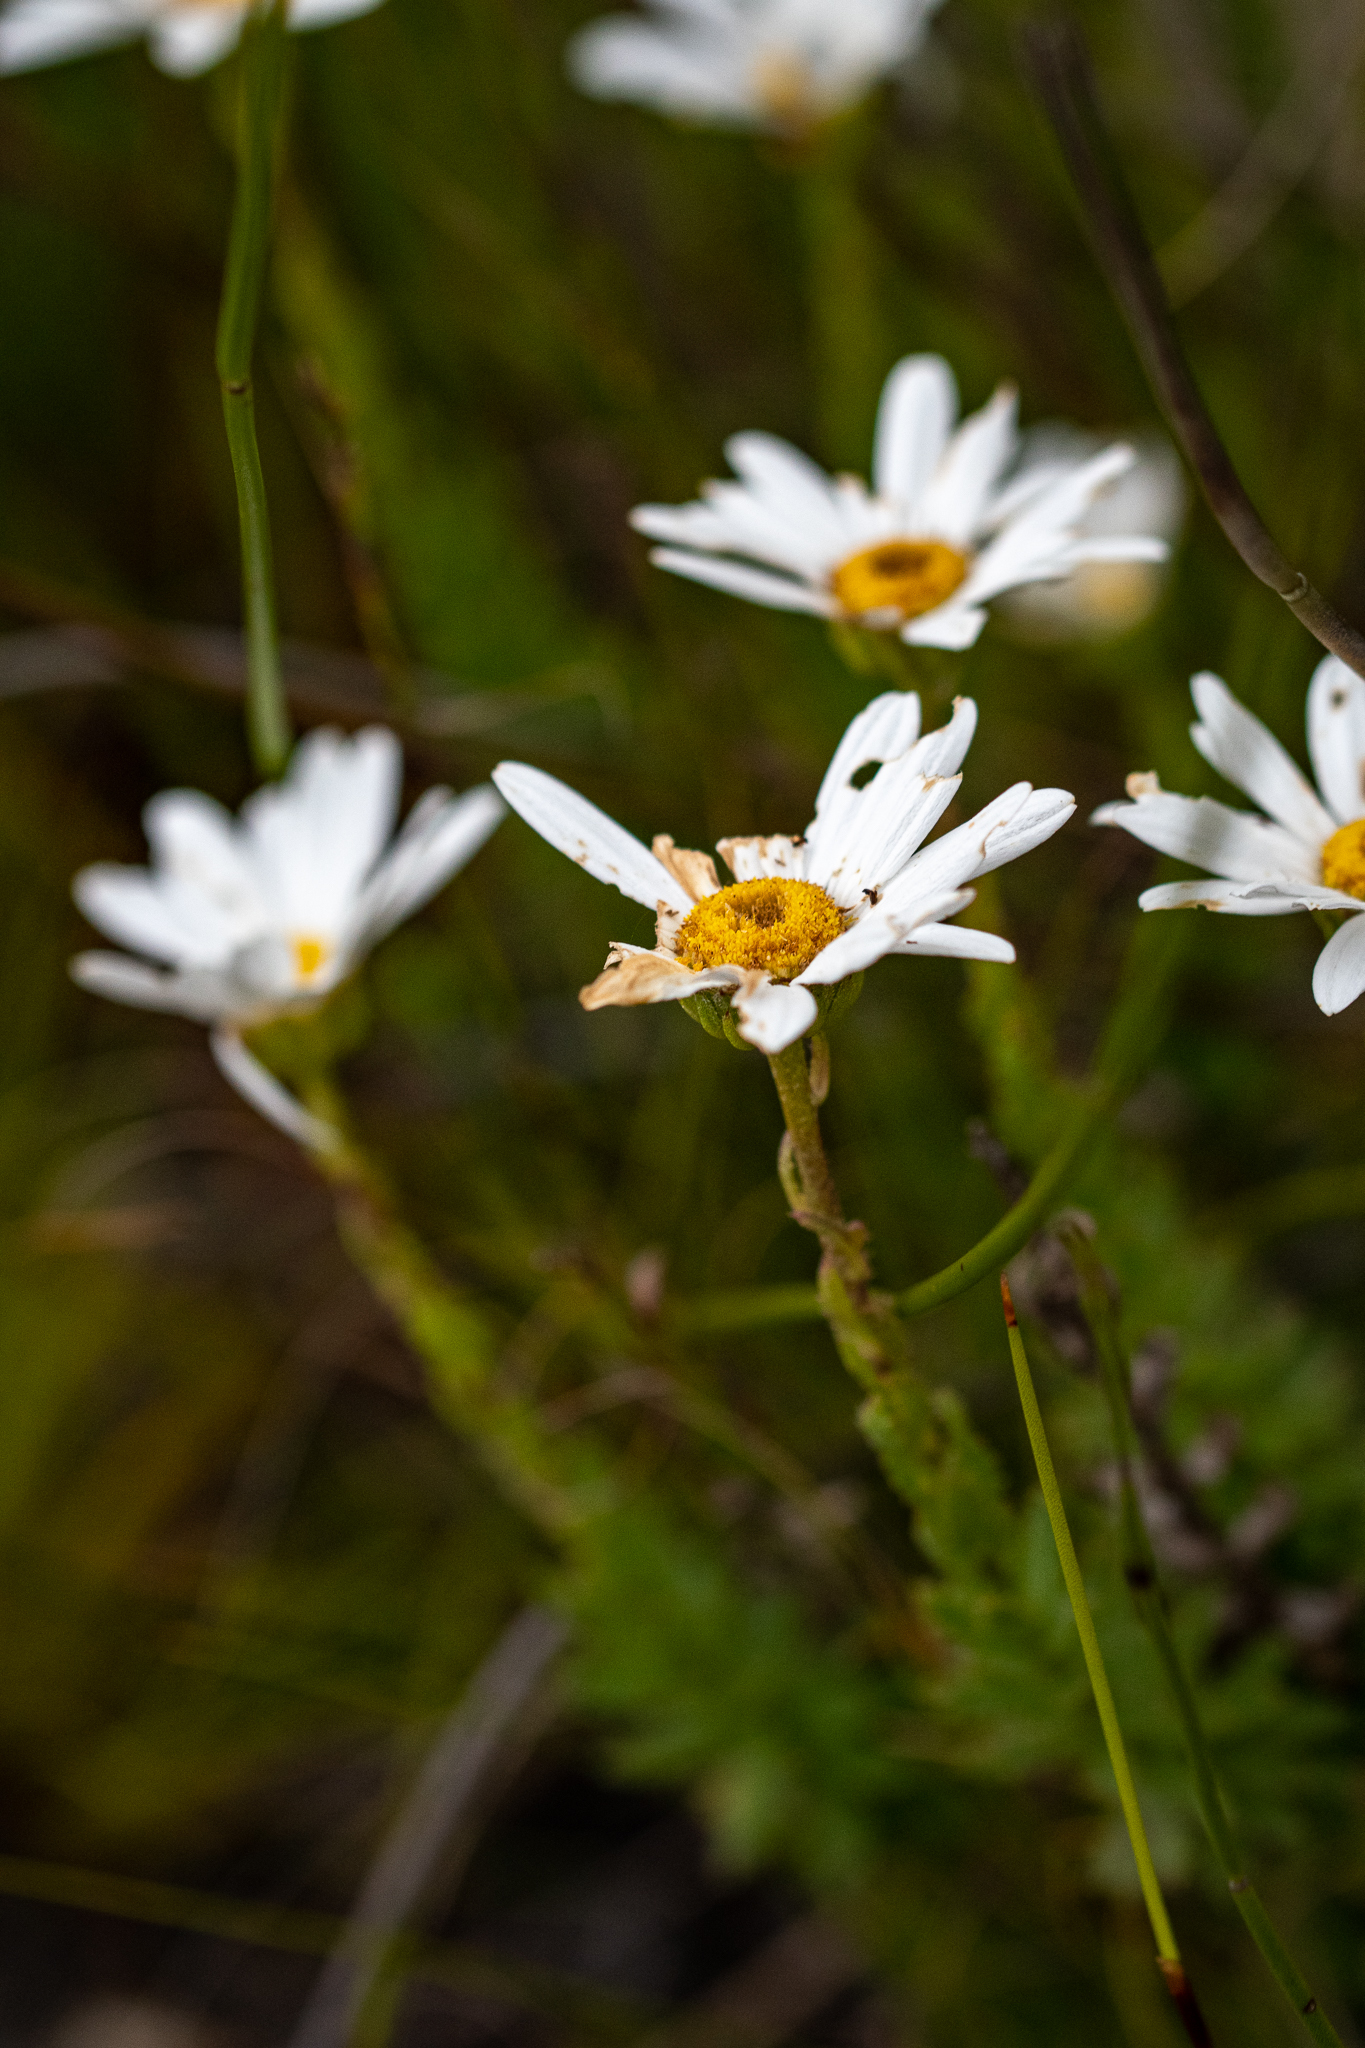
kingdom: Plantae
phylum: Tracheophyta
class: Magnoliopsida
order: Asterales
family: Asteraceae
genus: Osmitopsis
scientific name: Osmitopsis parvifolia
